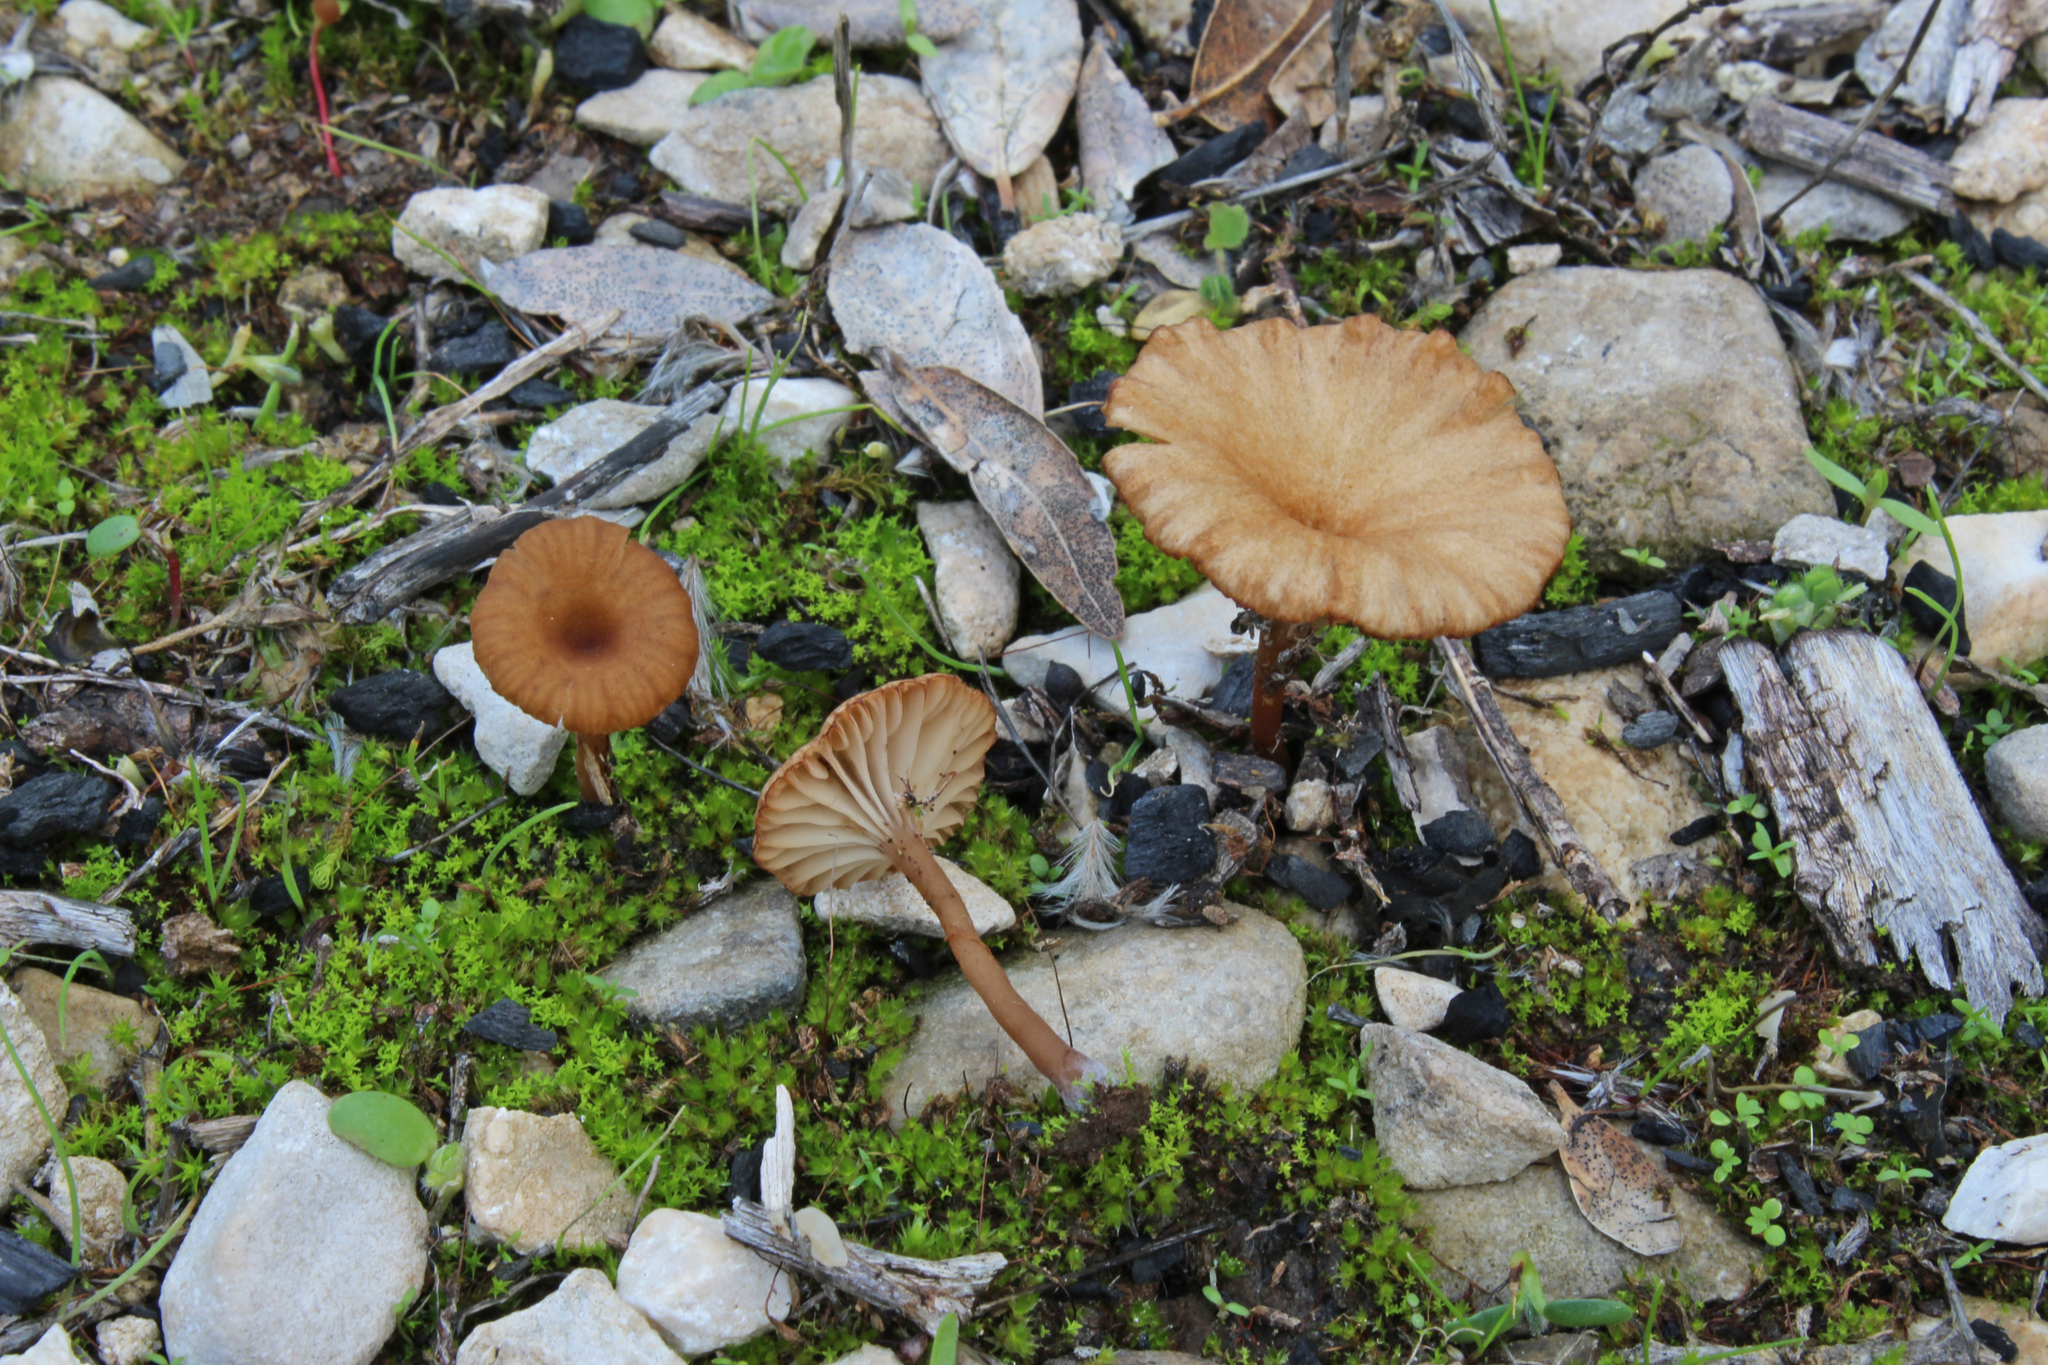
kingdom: Fungi
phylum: Basidiomycota
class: Agaricomycetes
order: Agaricales
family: Tricholomataceae
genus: Omphalina
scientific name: Omphalina pyxidata
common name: Cinnamon navel
